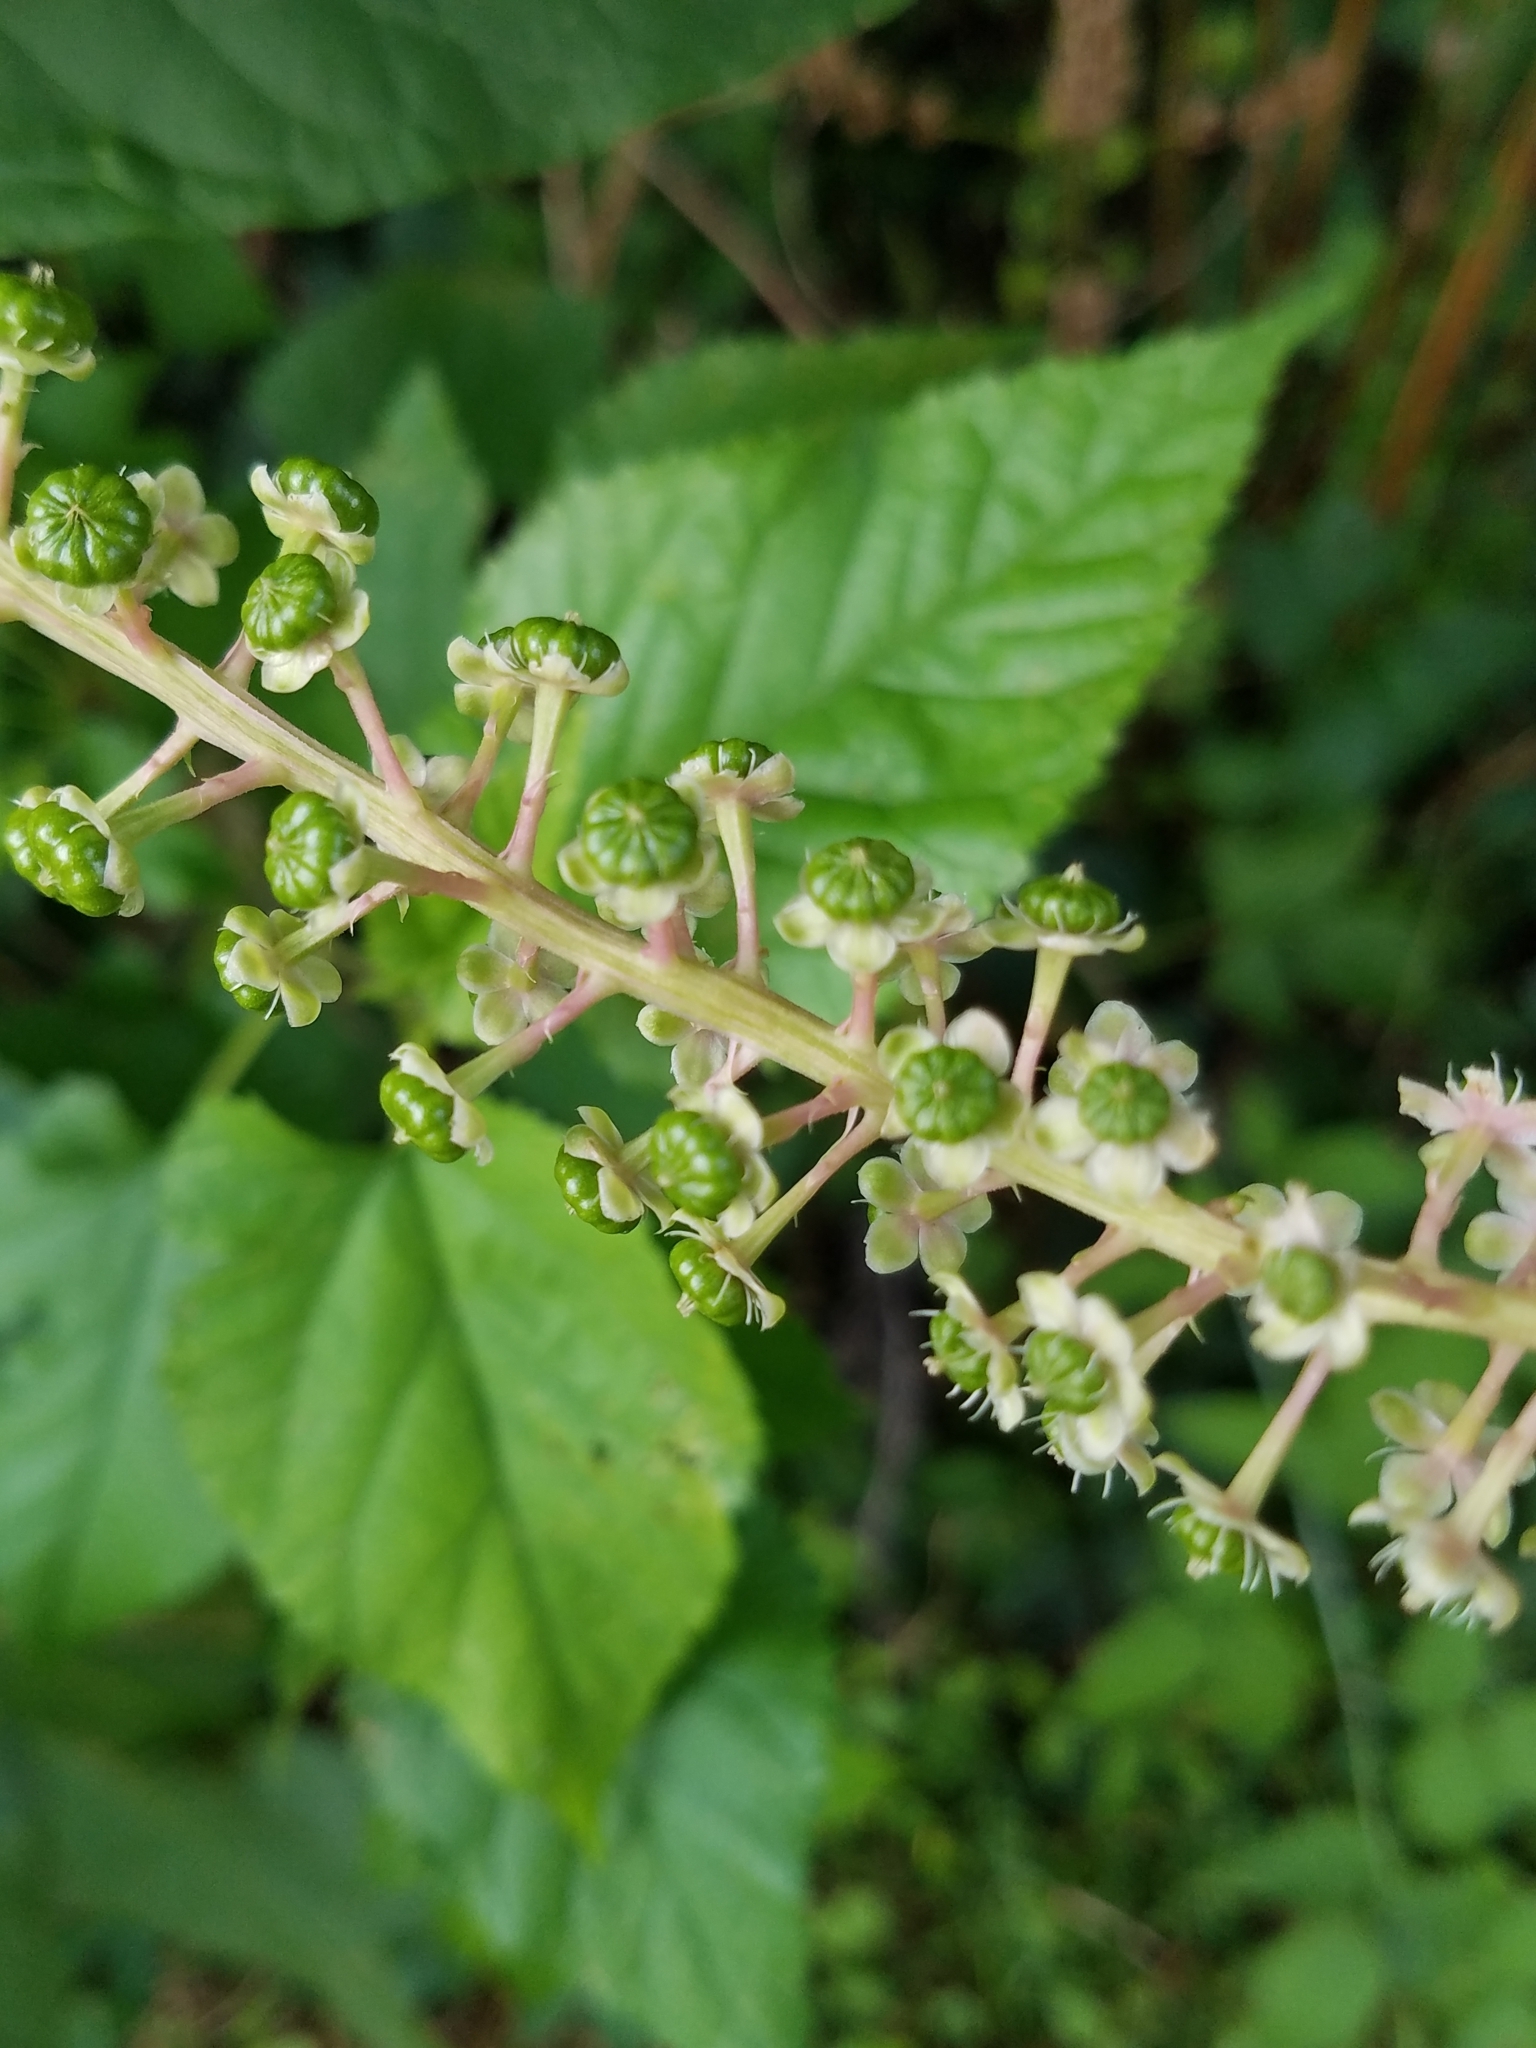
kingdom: Plantae
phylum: Tracheophyta
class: Magnoliopsida
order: Caryophyllales
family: Phytolaccaceae
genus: Phytolacca
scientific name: Phytolacca americana
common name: American pokeweed
